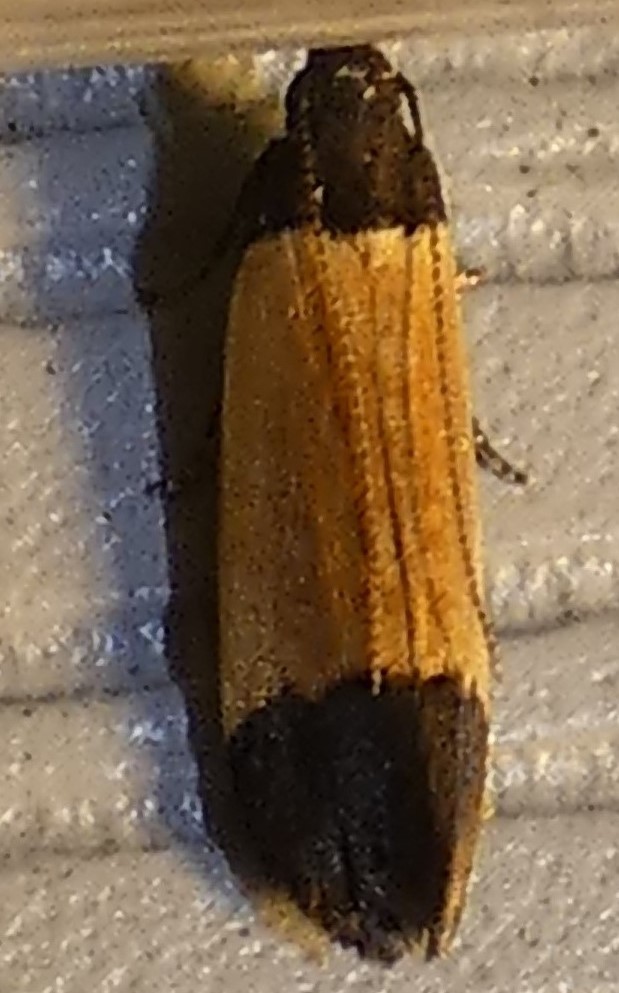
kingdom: Animalia
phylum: Arthropoda
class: Insecta
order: Lepidoptera
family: Gelechiidae
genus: Anacampsis
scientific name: Anacampsis coverdalella
